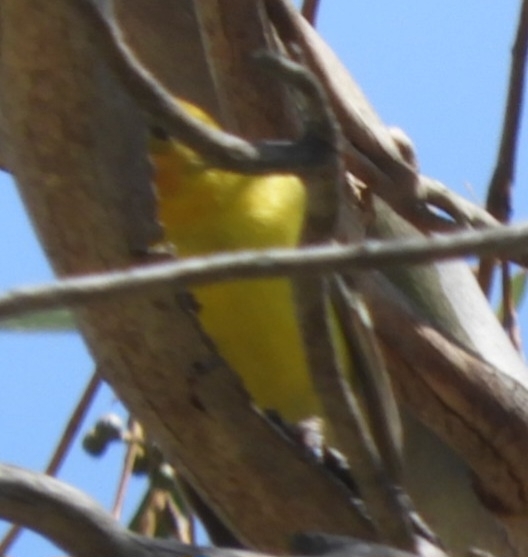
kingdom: Animalia
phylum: Chordata
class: Aves
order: Passeriformes
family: Cardinalidae
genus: Piranga
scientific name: Piranga ludoviciana
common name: Western tanager
